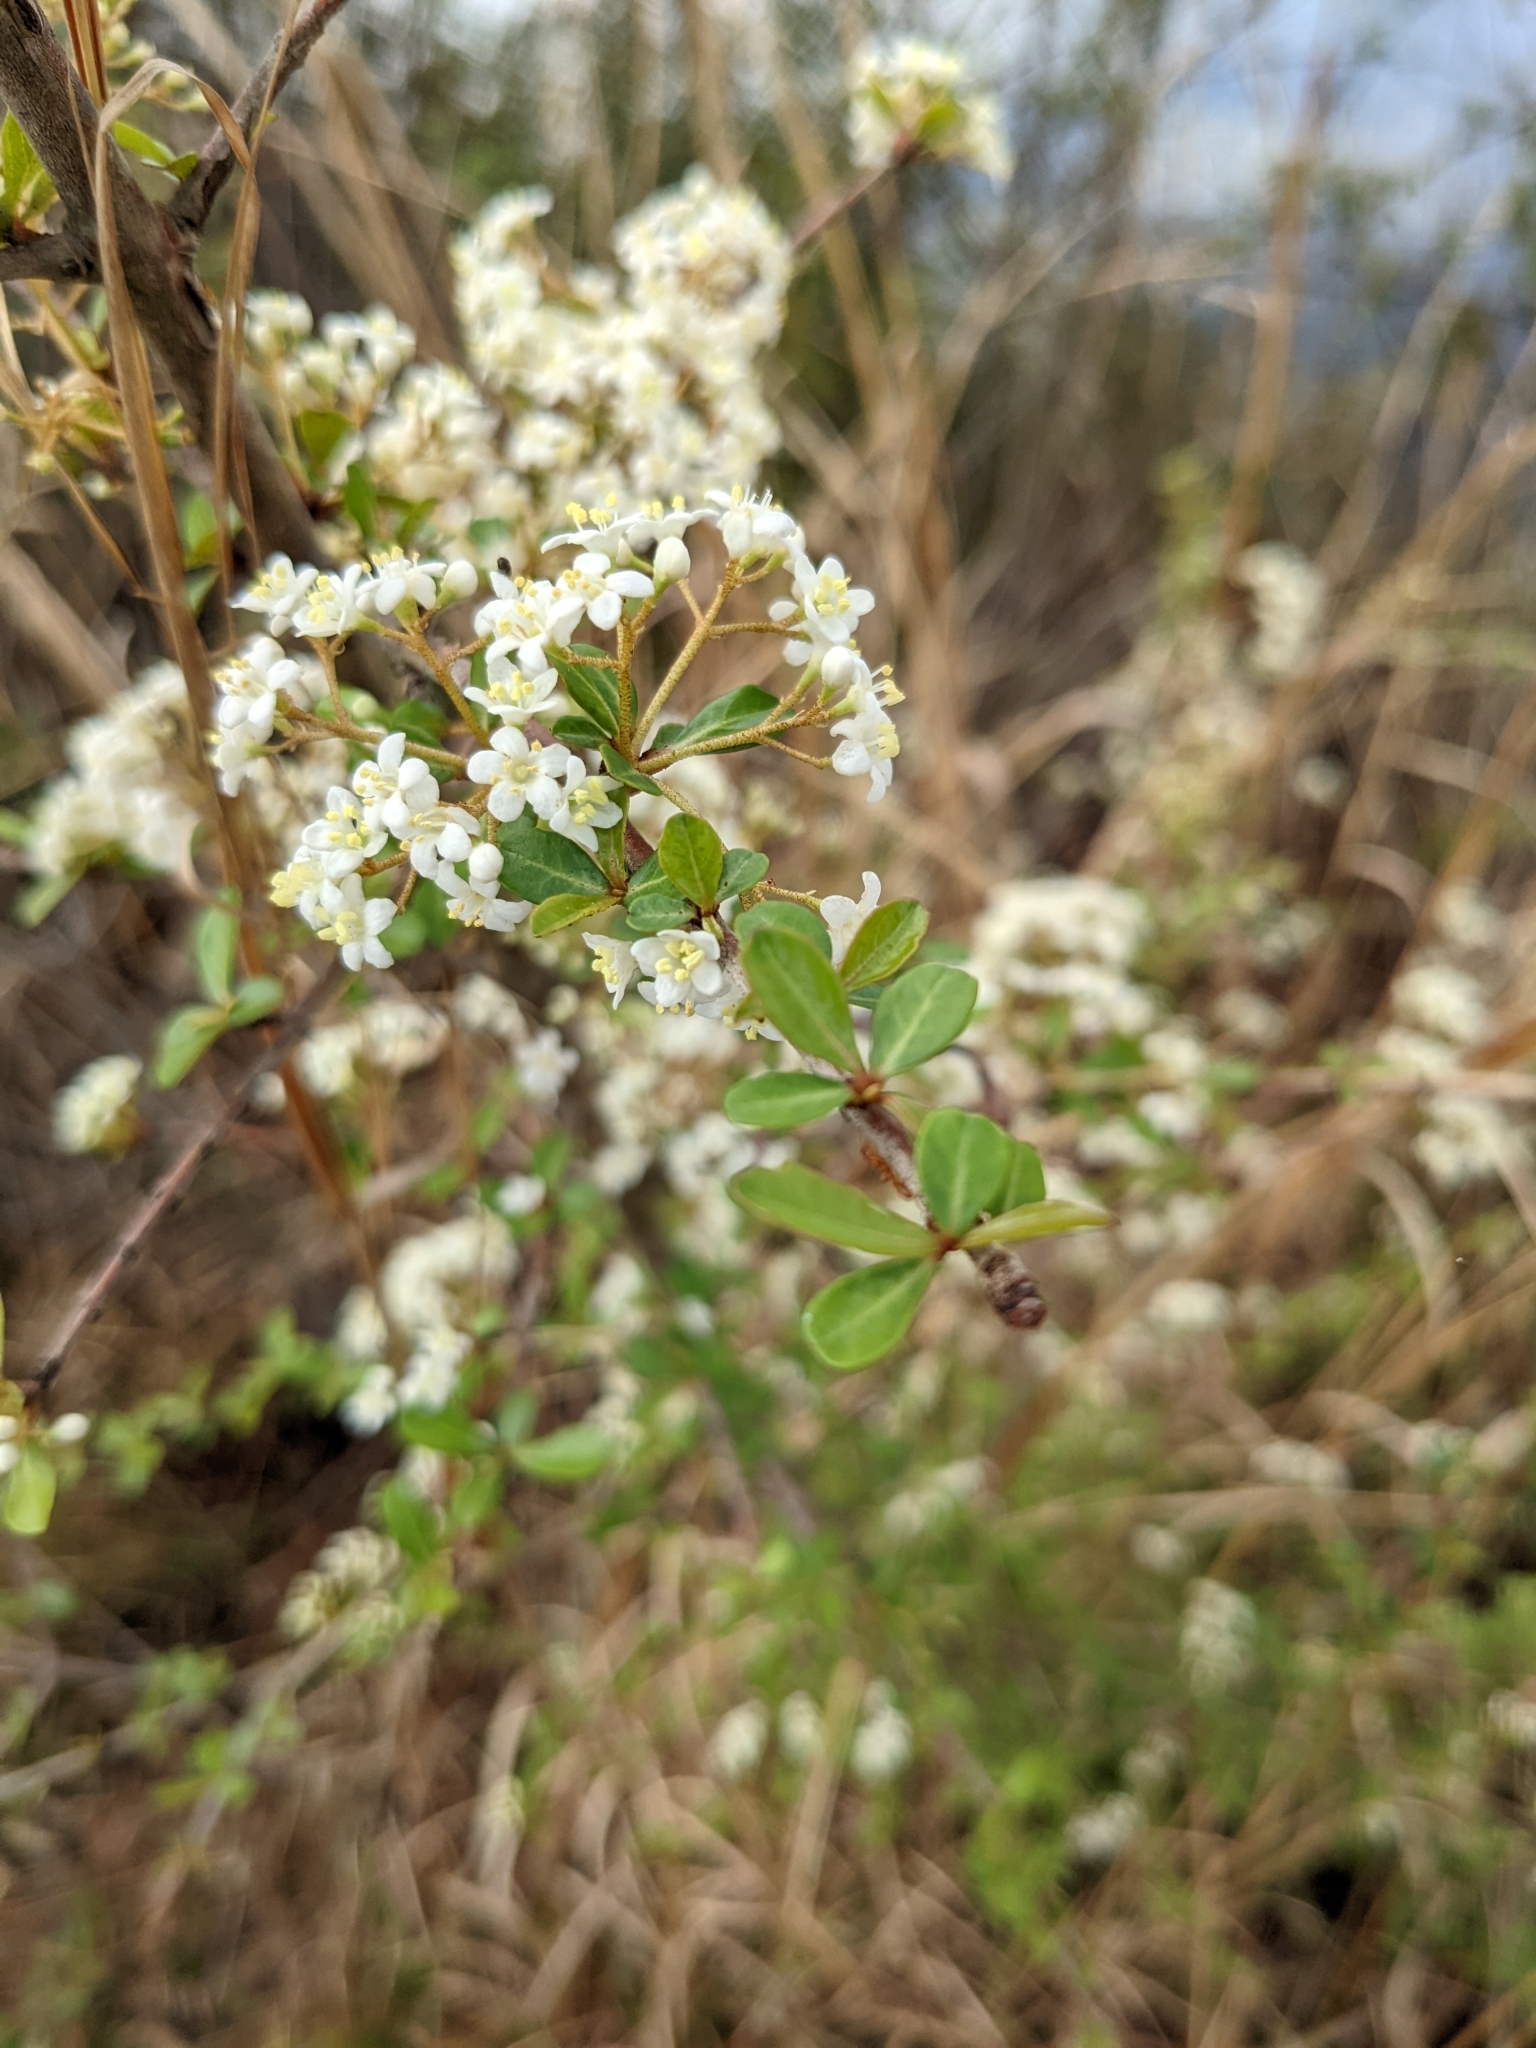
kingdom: Plantae
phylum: Tracheophyta
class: Magnoliopsida
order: Dipsacales
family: Viburnaceae
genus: Viburnum
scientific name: Viburnum obovatum
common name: Walter's viburnum
